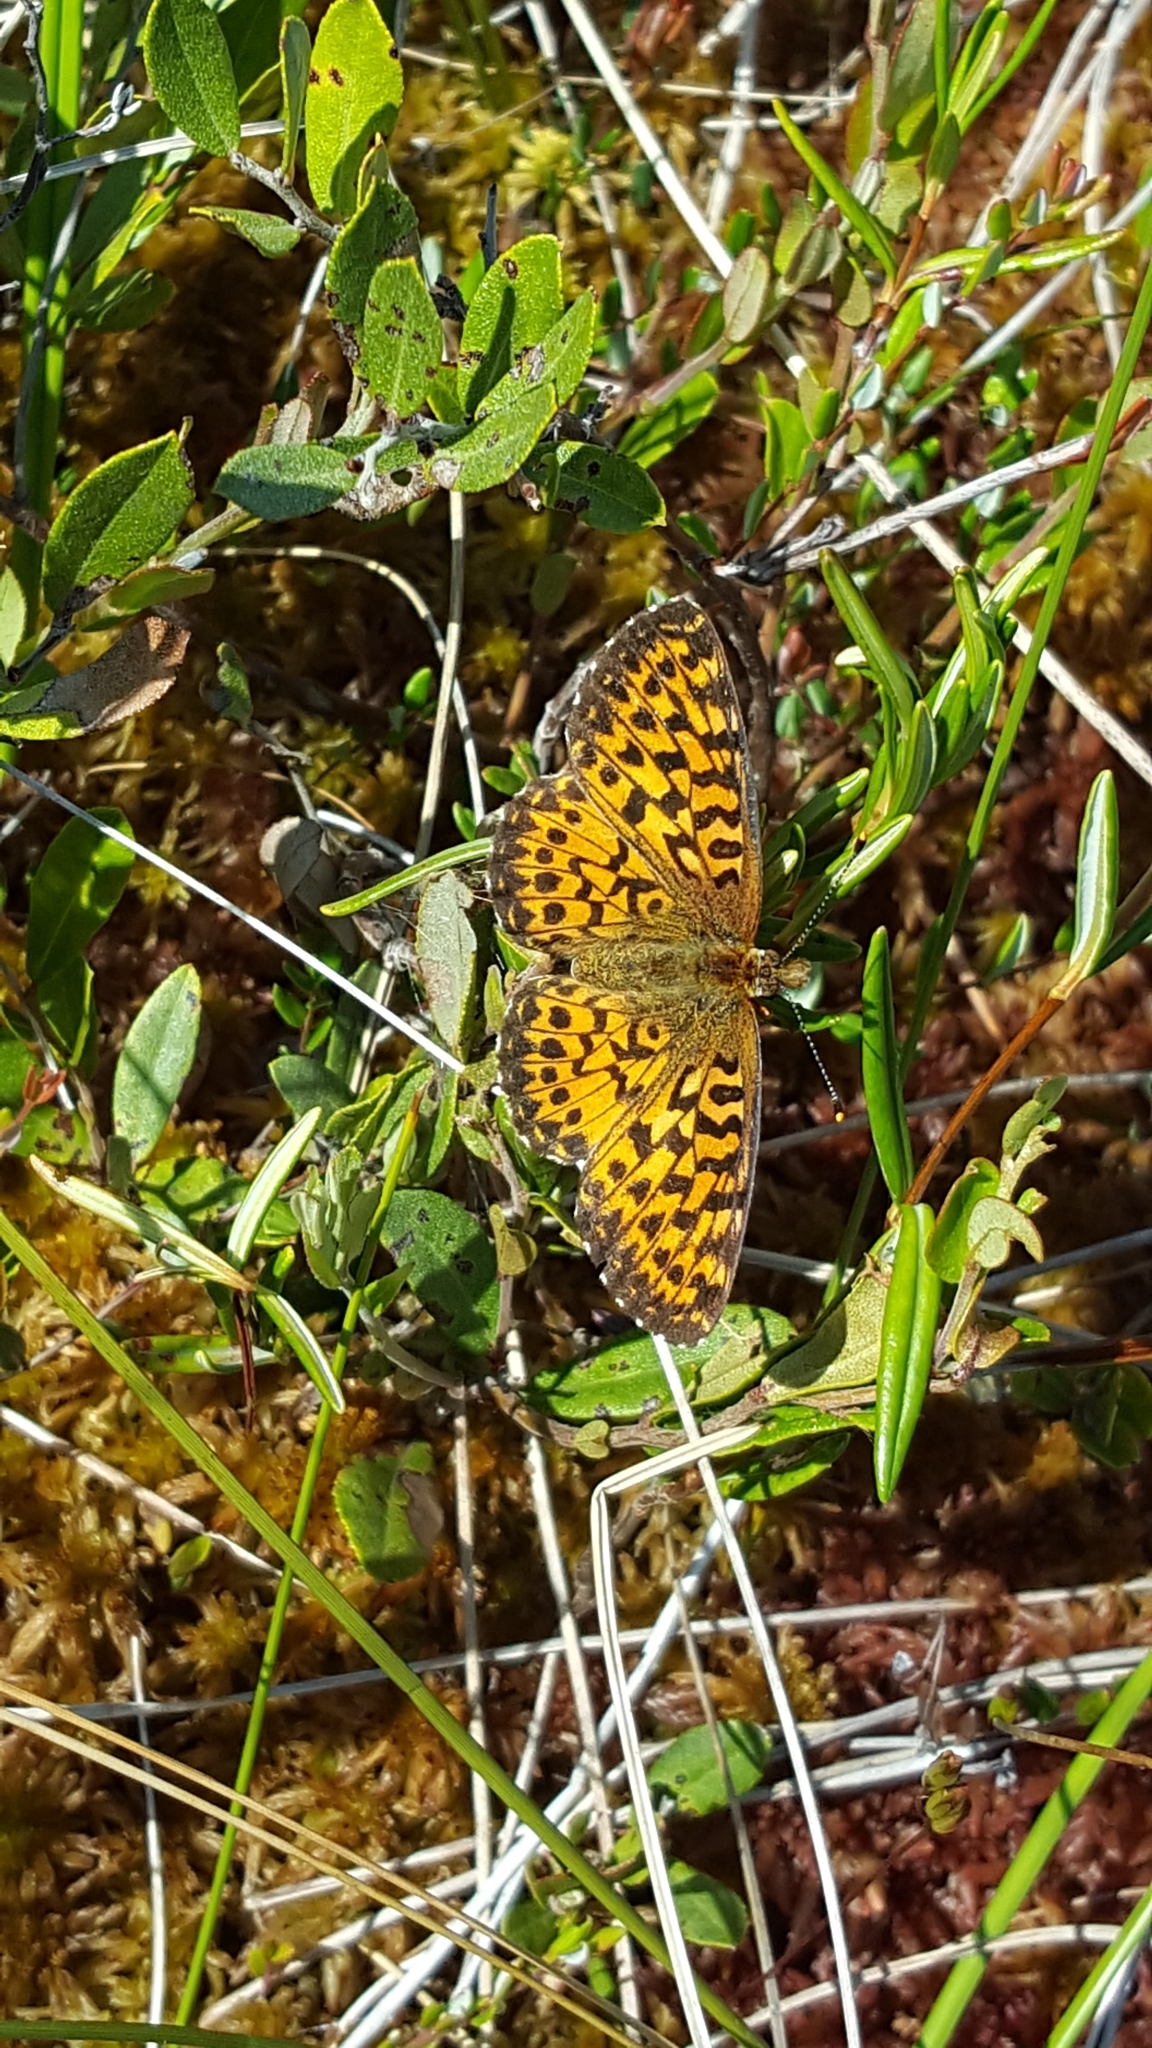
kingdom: Animalia
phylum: Arthropoda
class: Insecta
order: Lepidoptera
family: Nymphalidae
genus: Boloria
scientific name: Boloria chariclea
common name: Arctic fritillary
